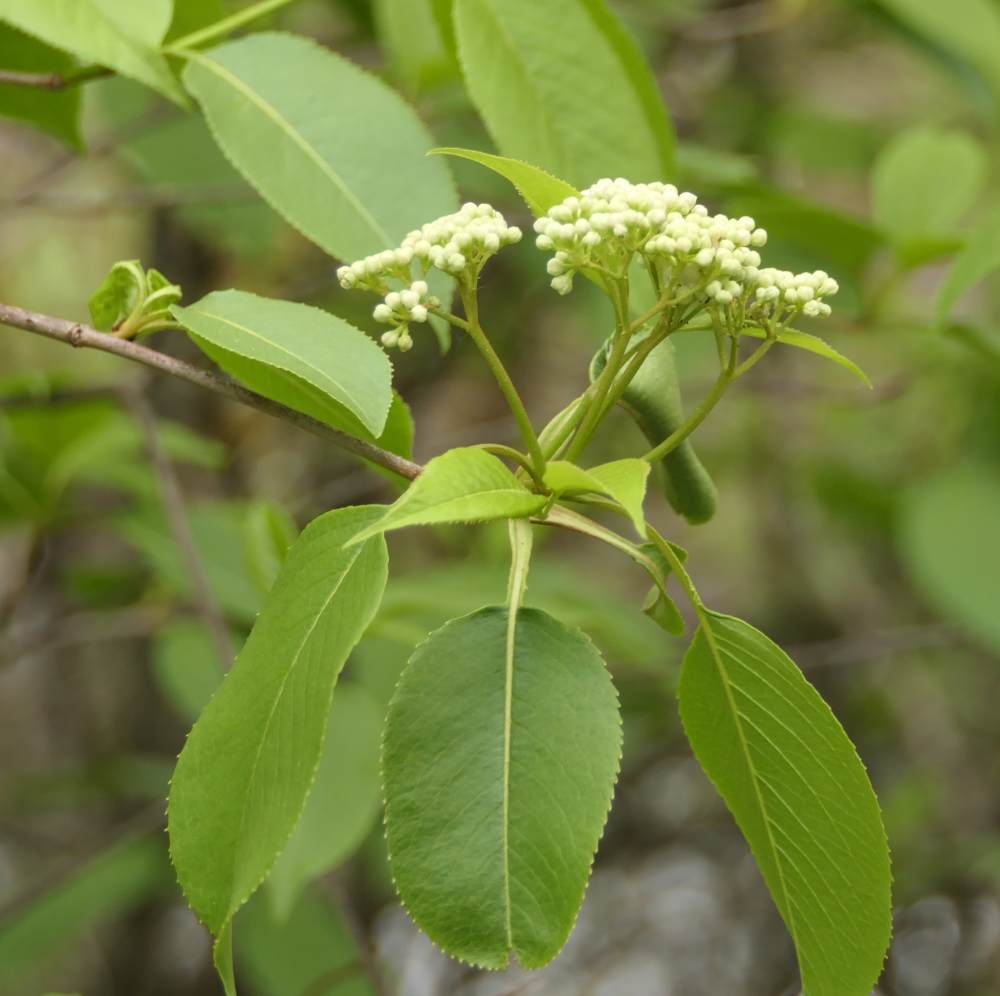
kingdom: Plantae
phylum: Tracheophyta
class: Magnoliopsida
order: Dipsacales
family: Viburnaceae
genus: Viburnum
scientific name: Viburnum lentago
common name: Black haw
